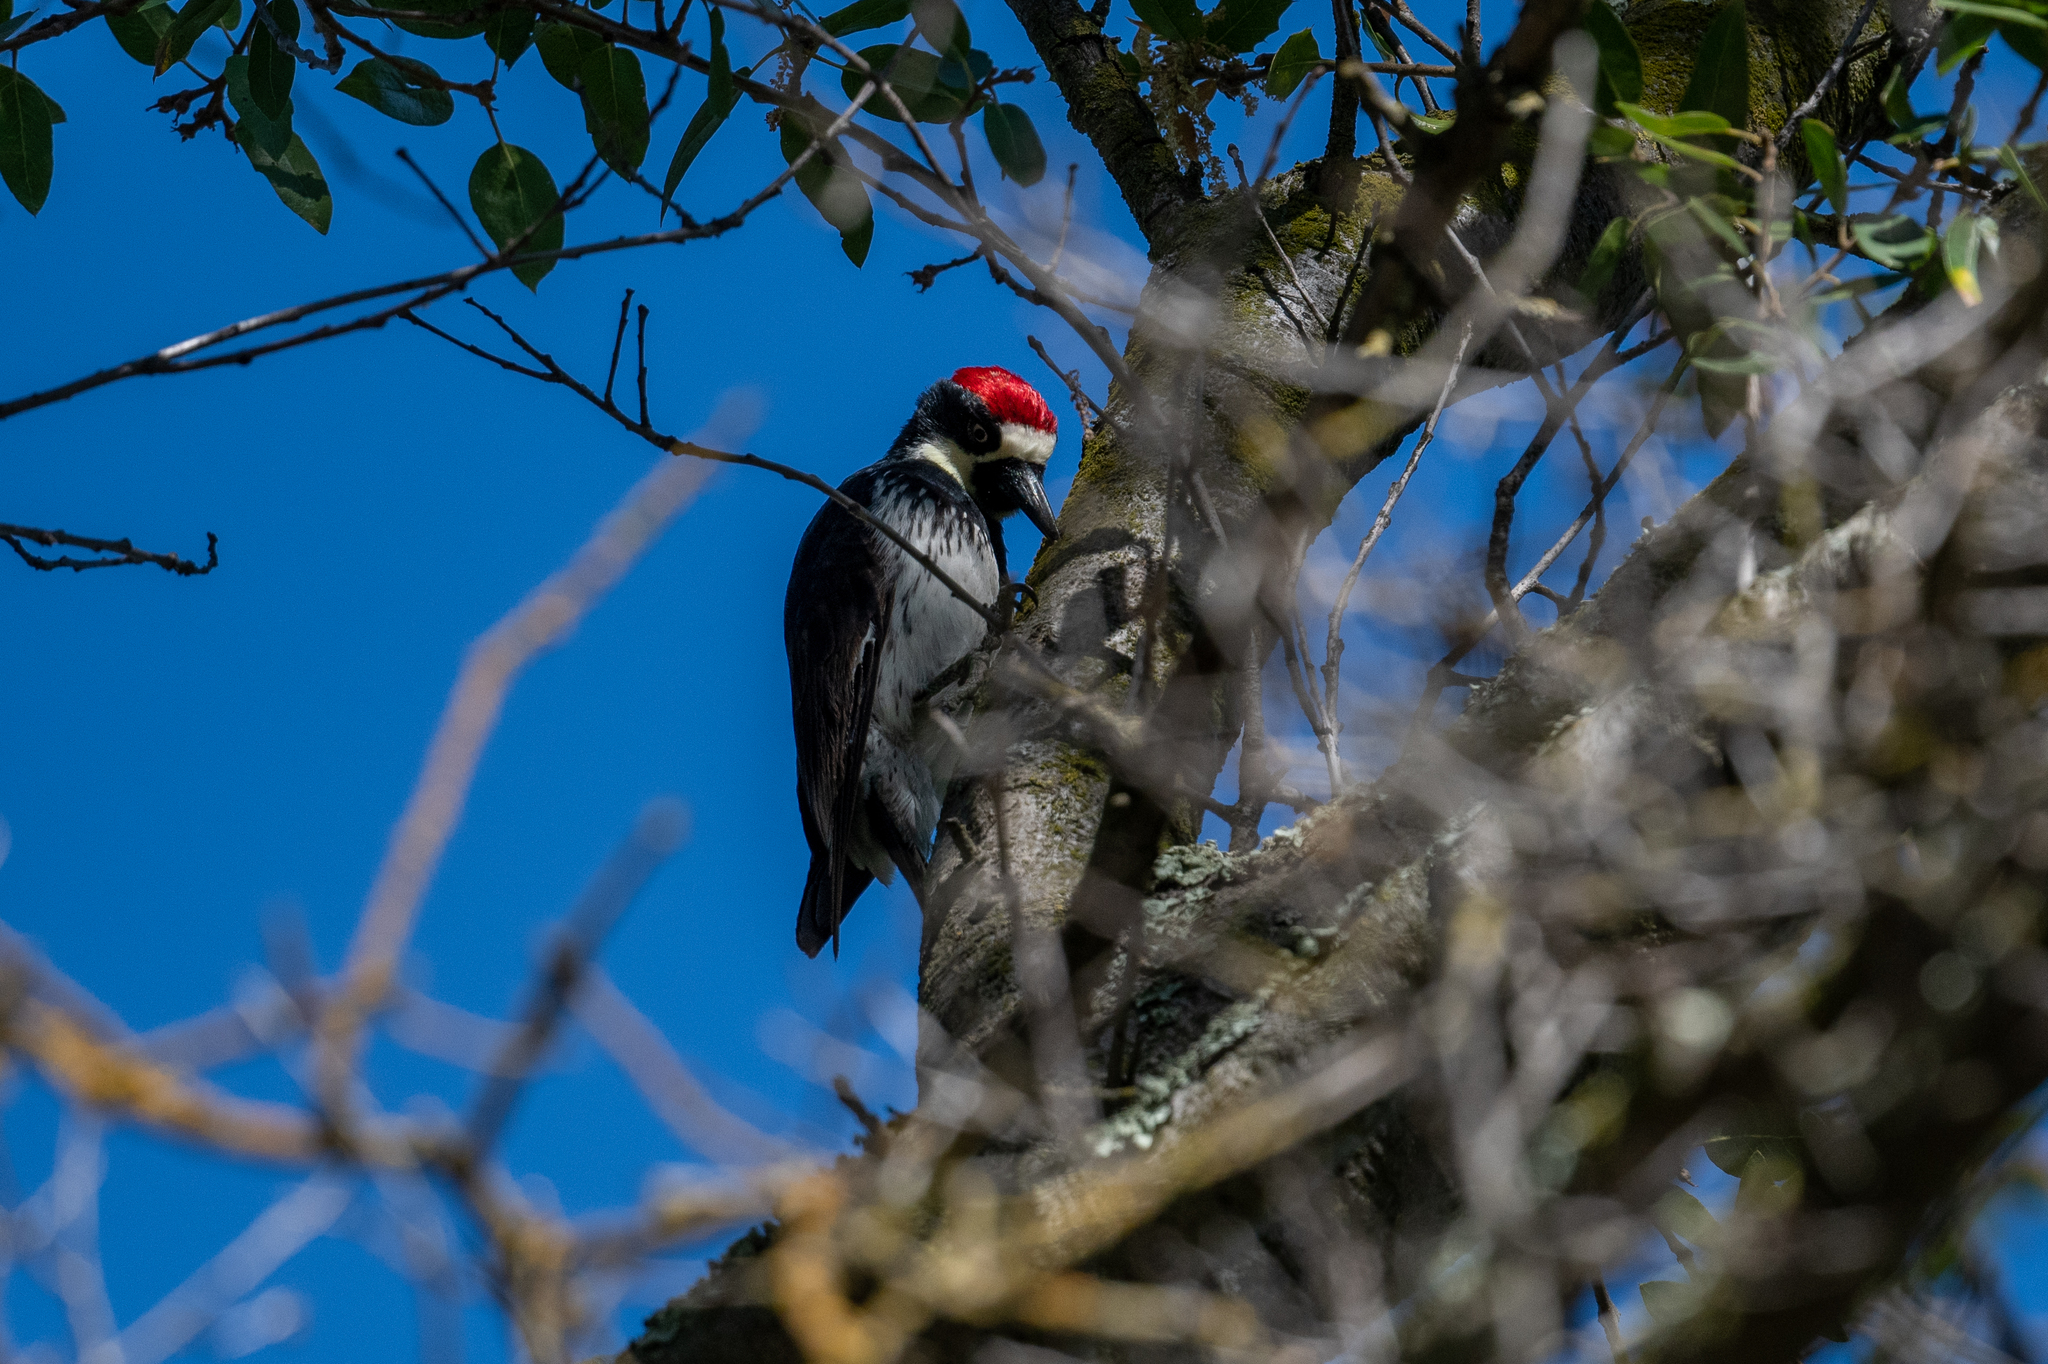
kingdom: Animalia
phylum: Chordata
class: Aves
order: Piciformes
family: Picidae
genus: Melanerpes
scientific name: Melanerpes formicivorus
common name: Acorn woodpecker
